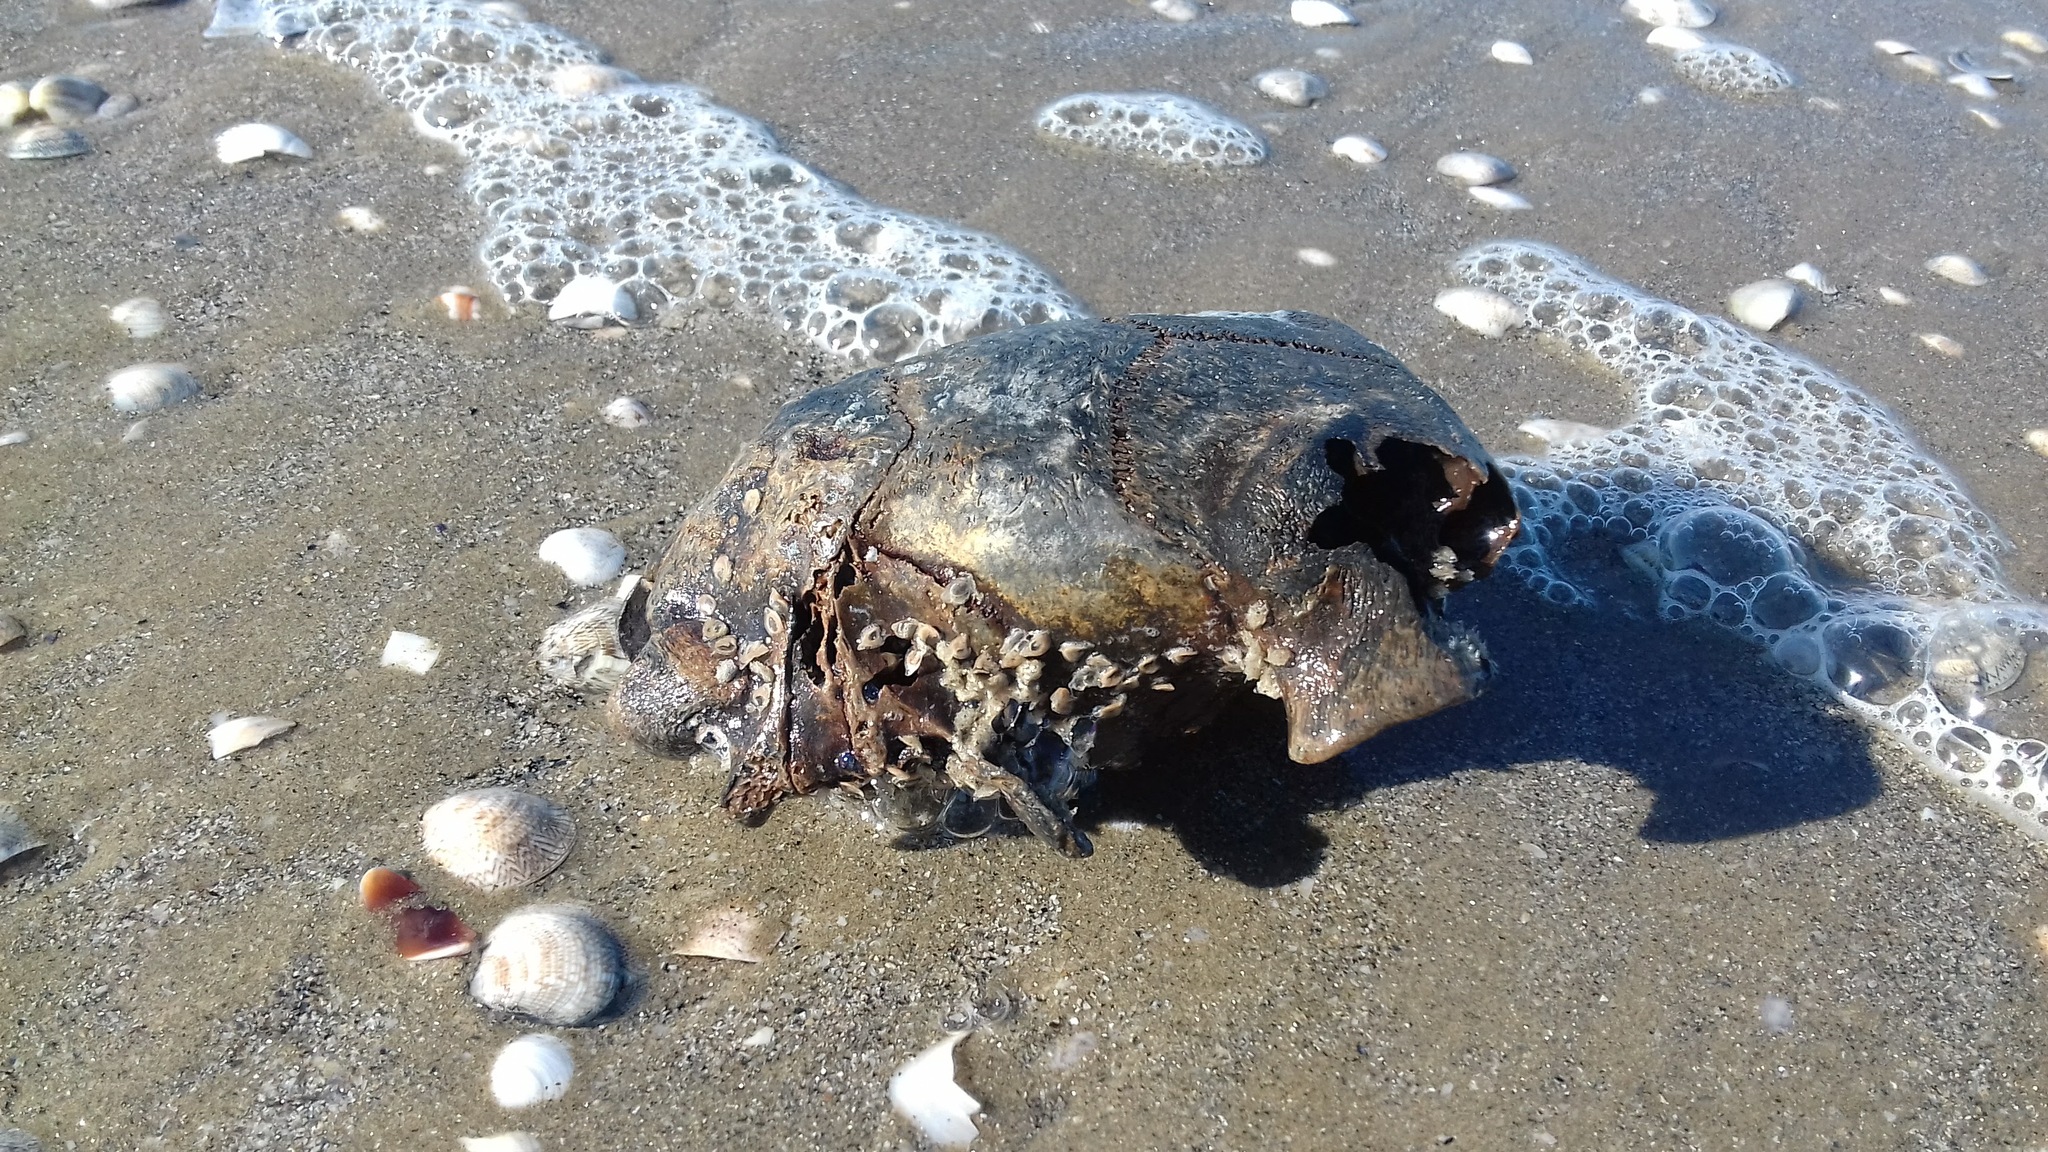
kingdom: Animalia
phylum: Chordata
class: Testudines
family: Cheloniidae
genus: Caretta
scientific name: Caretta caretta
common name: Loggerhead sea turtle
